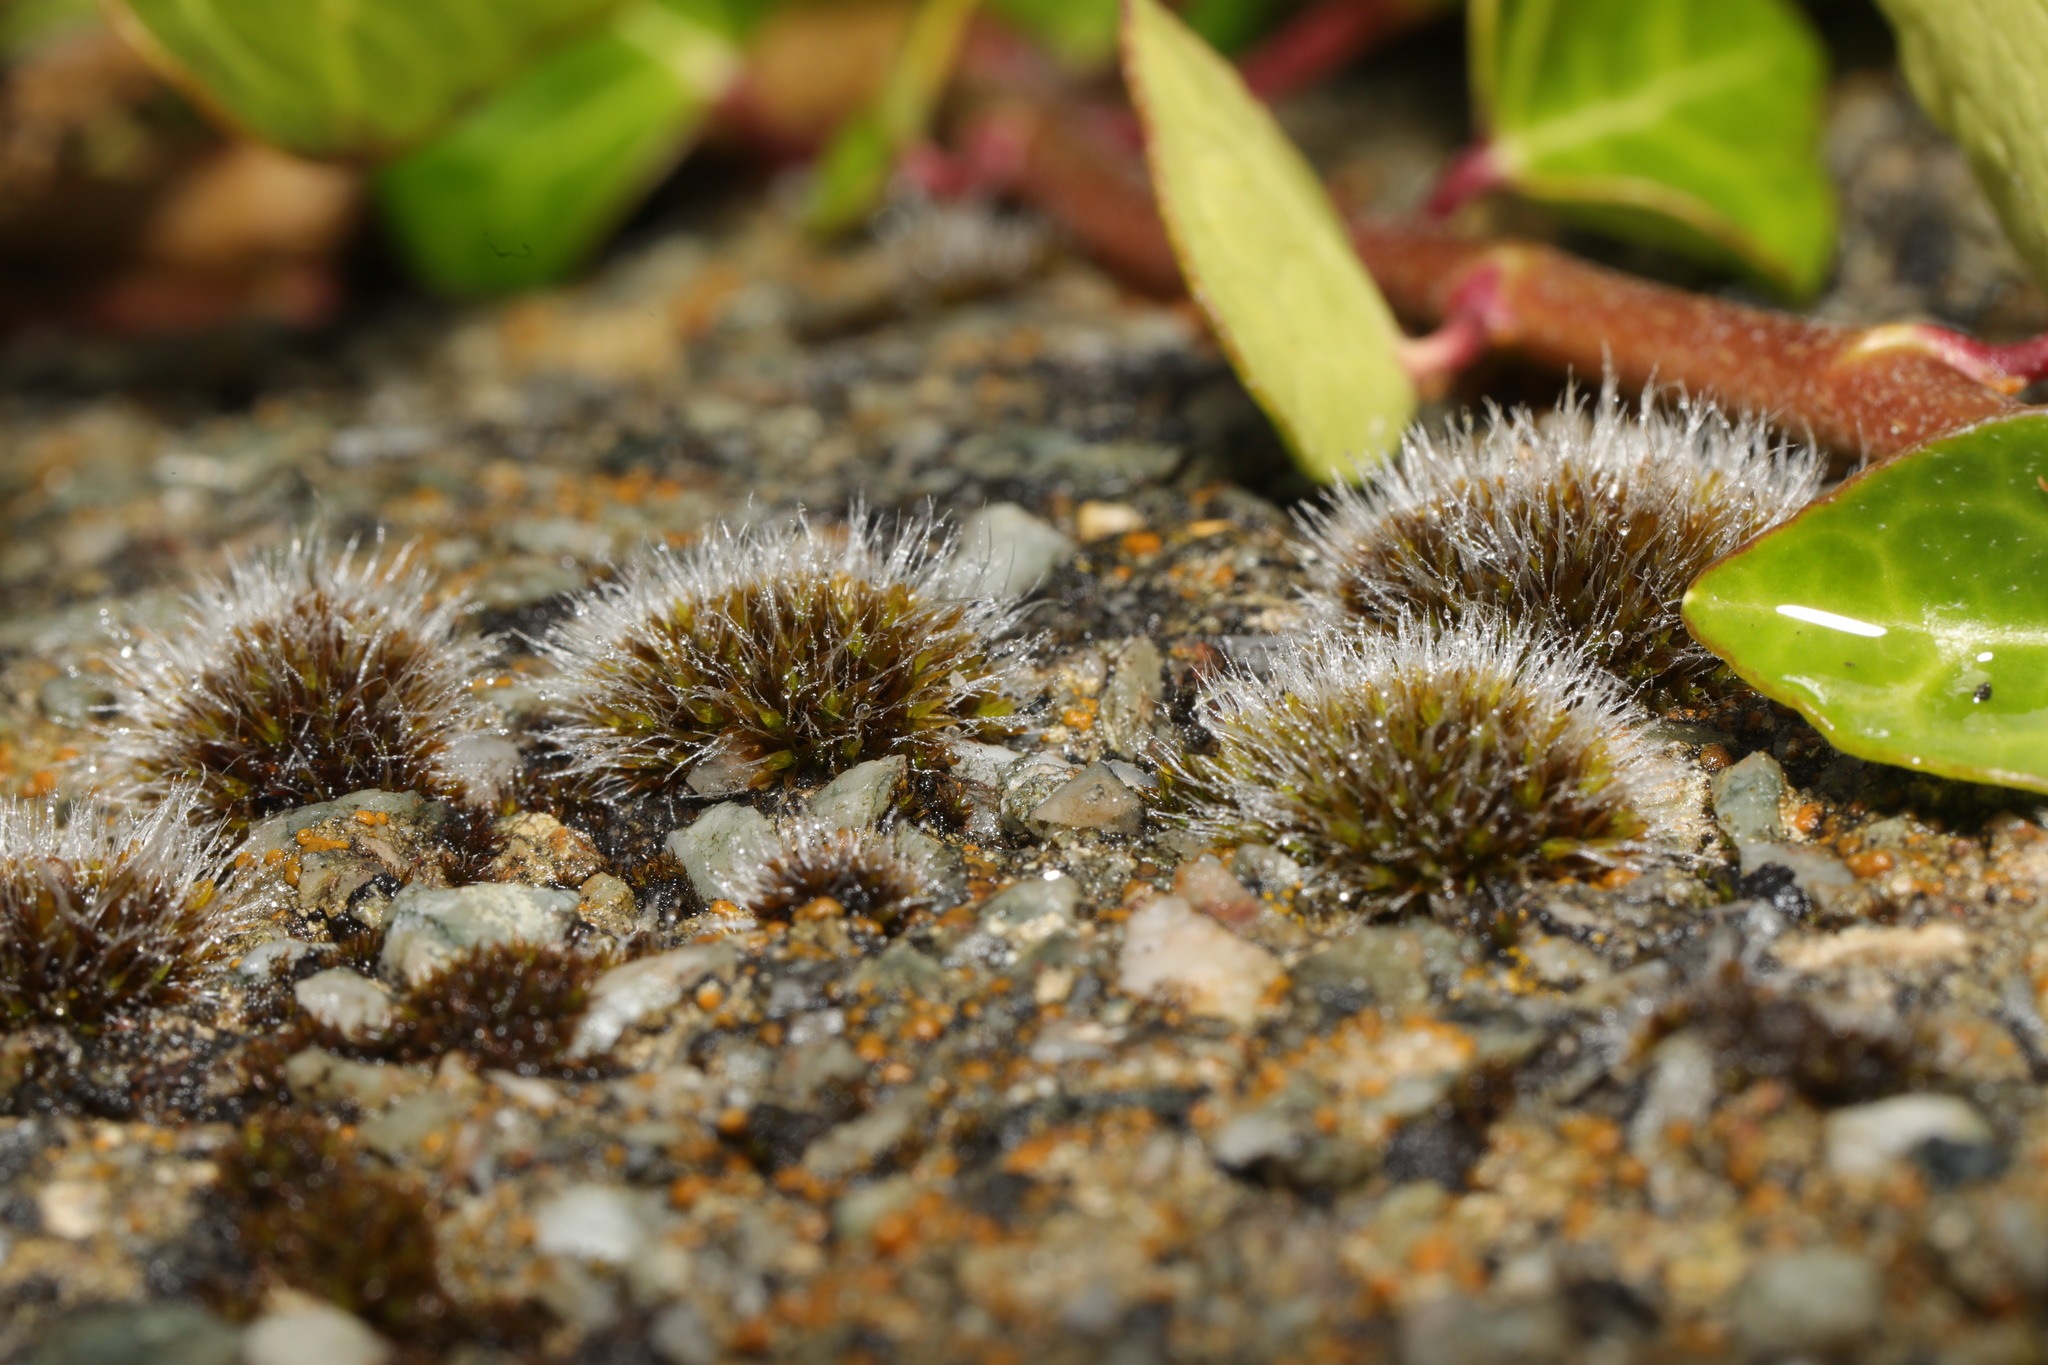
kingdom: Plantae
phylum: Bryophyta
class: Bryopsida
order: Grimmiales
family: Grimmiaceae
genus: Grimmia
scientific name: Grimmia pulvinata
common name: Grey-cushioned grimmia
